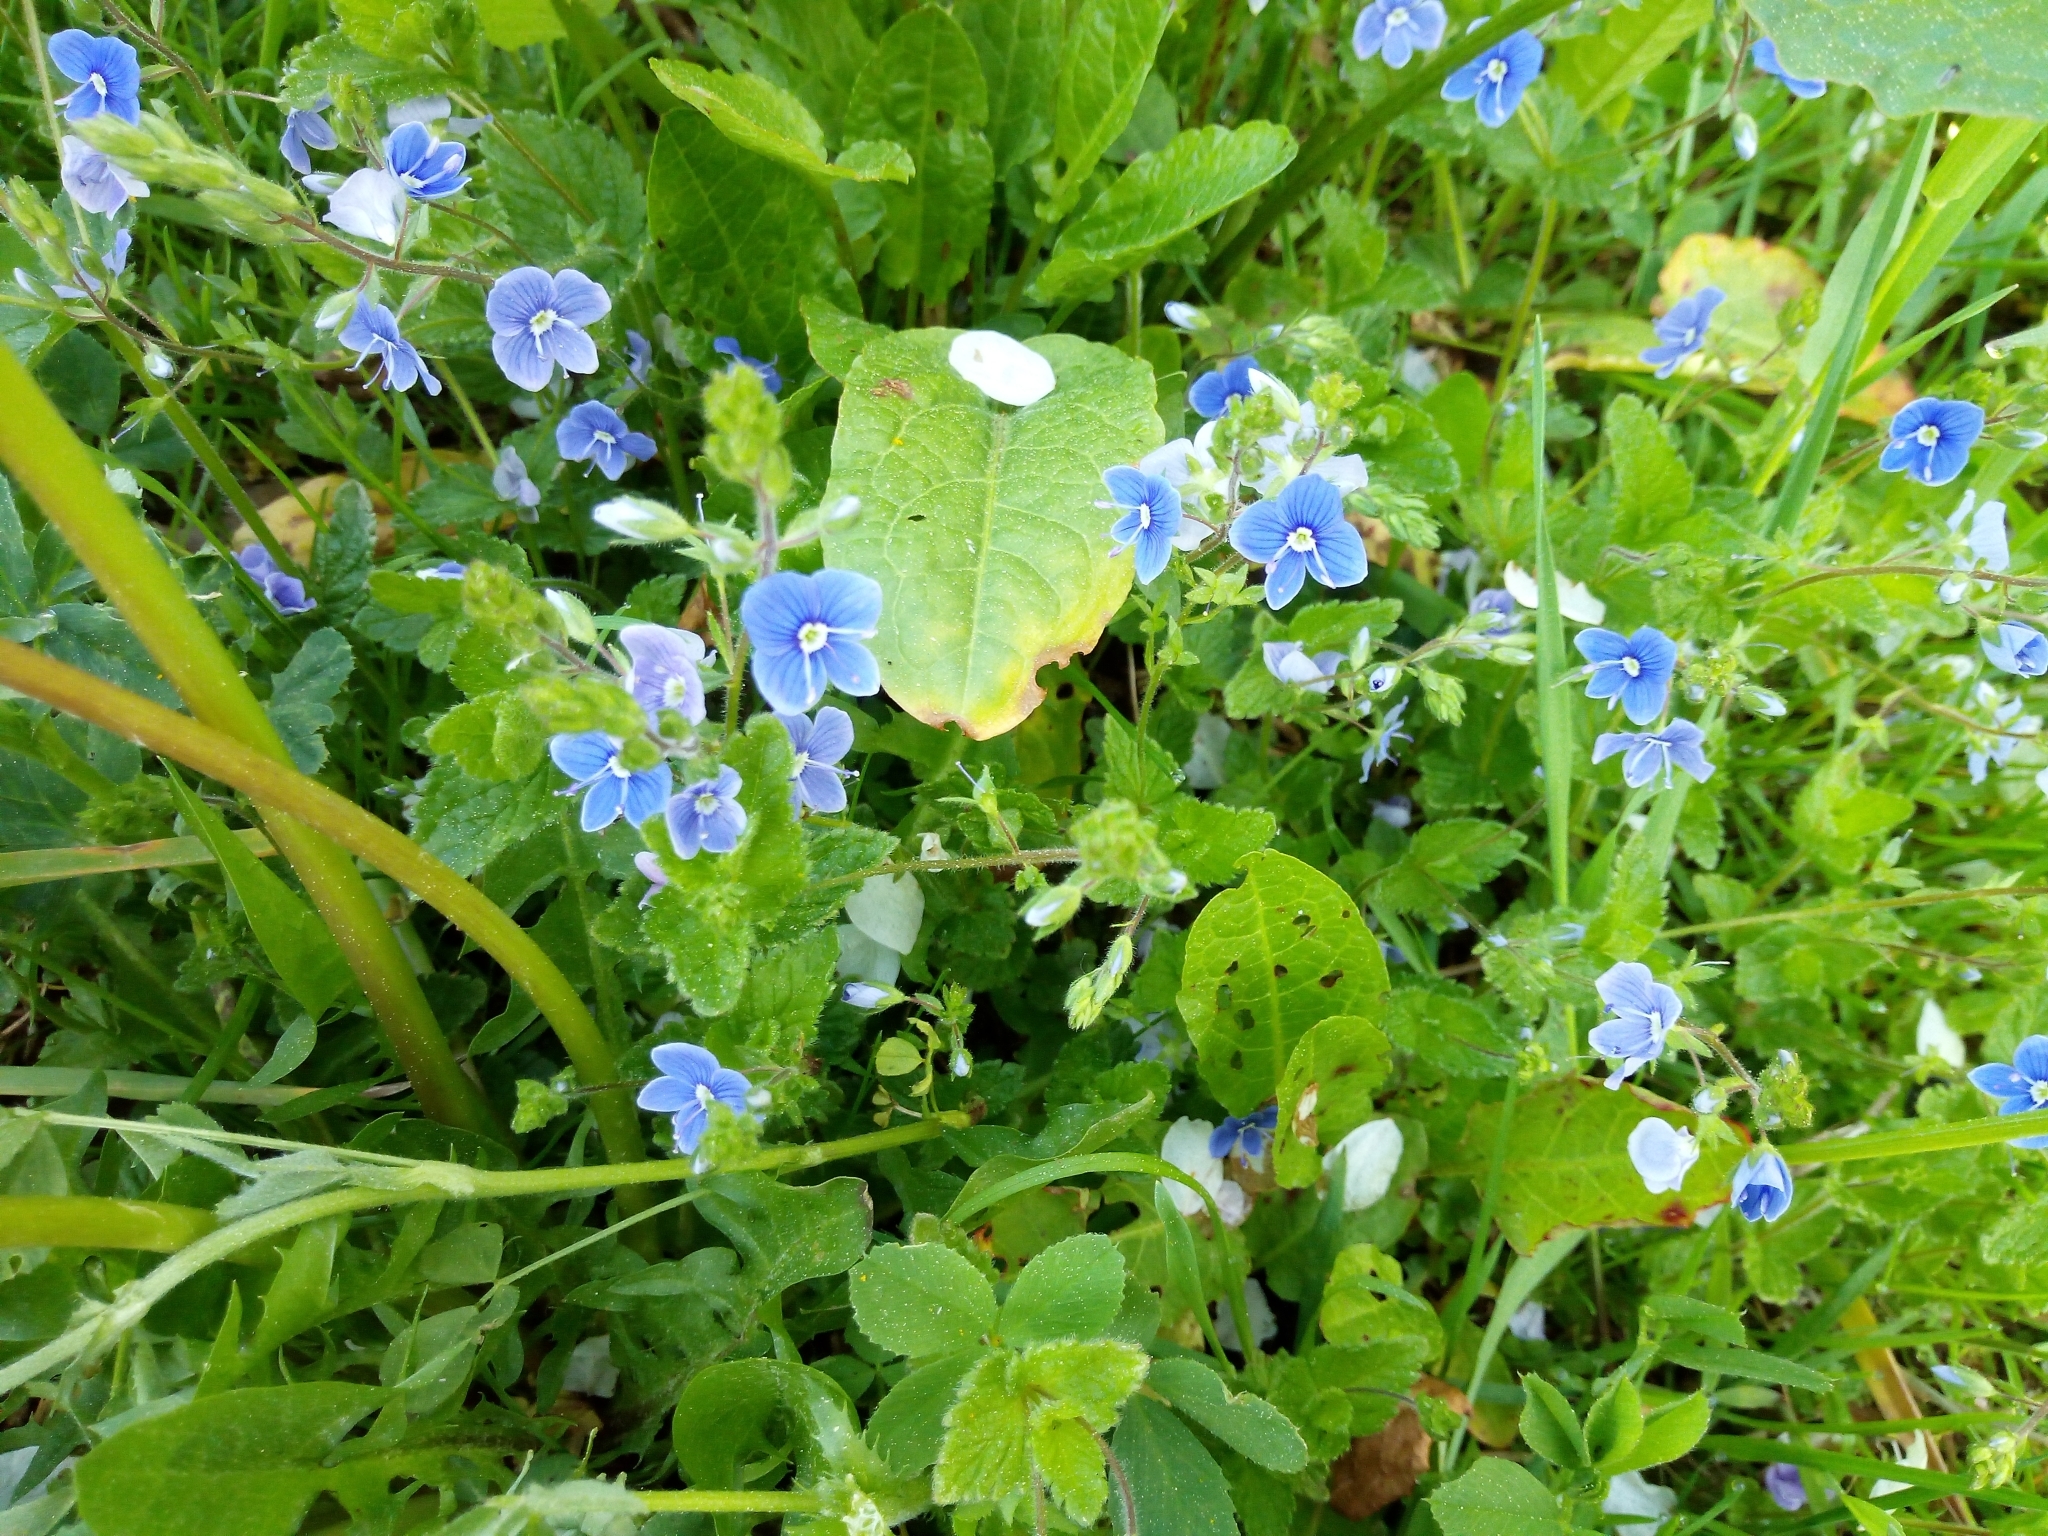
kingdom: Plantae
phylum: Tracheophyta
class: Magnoliopsida
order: Lamiales
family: Plantaginaceae
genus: Veronica
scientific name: Veronica chamaedrys
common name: Germander speedwell
